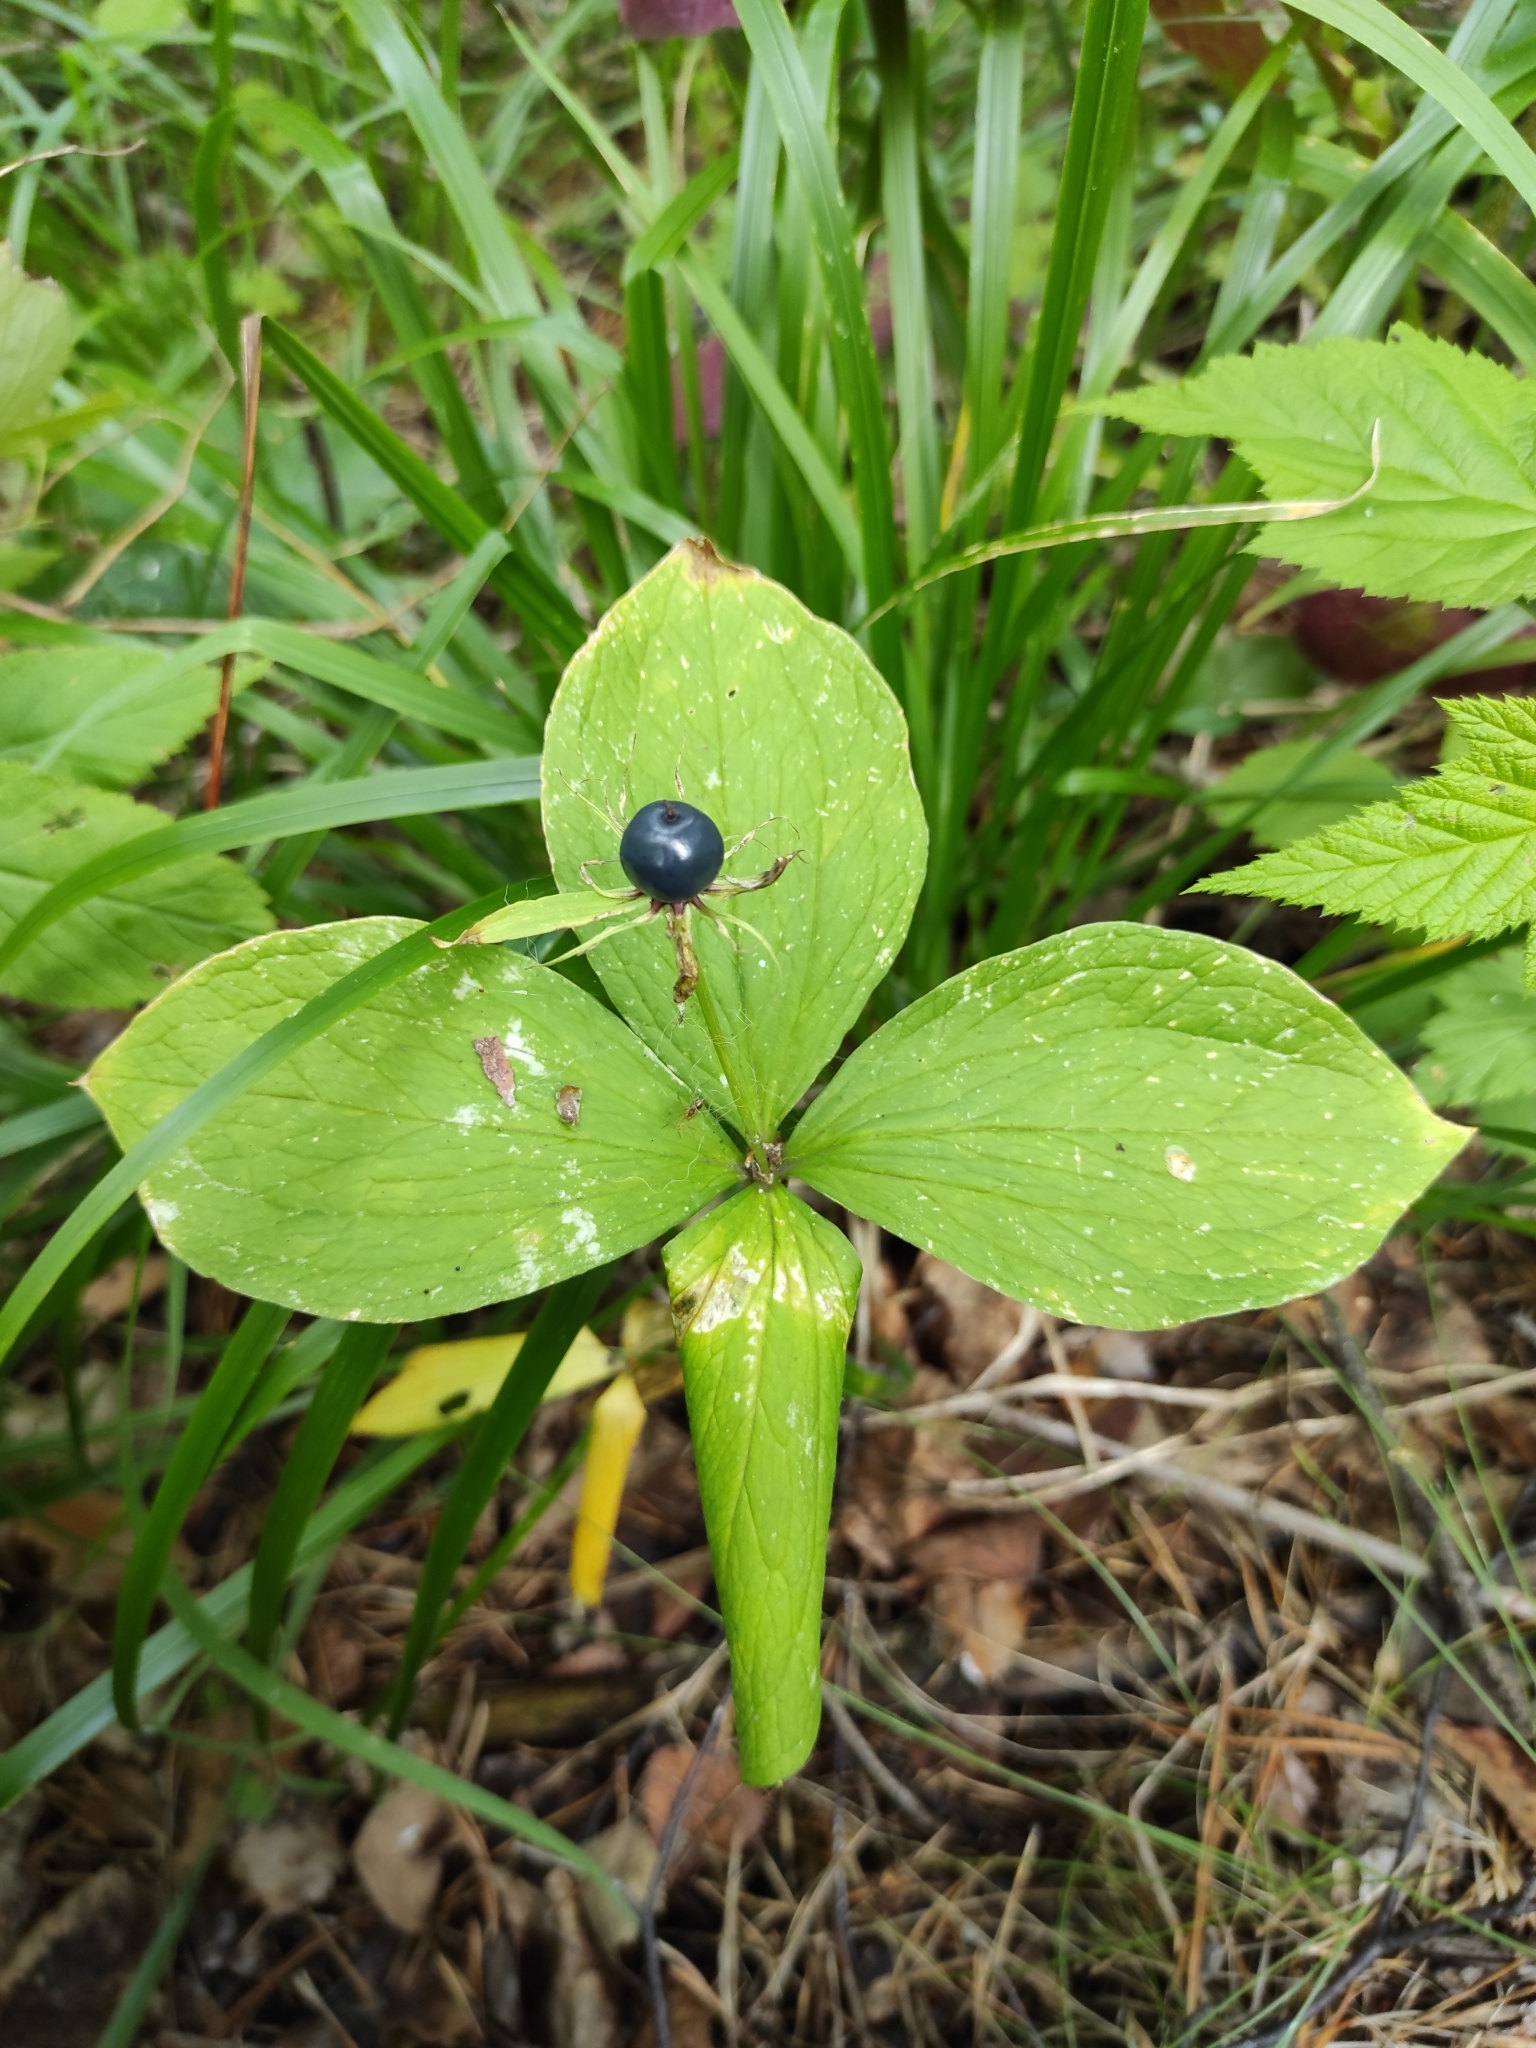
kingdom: Plantae
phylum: Tracheophyta
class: Liliopsida
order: Liliales
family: Melanthiaceae
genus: Paris
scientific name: Paris quadrifolia
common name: Herb-paris
